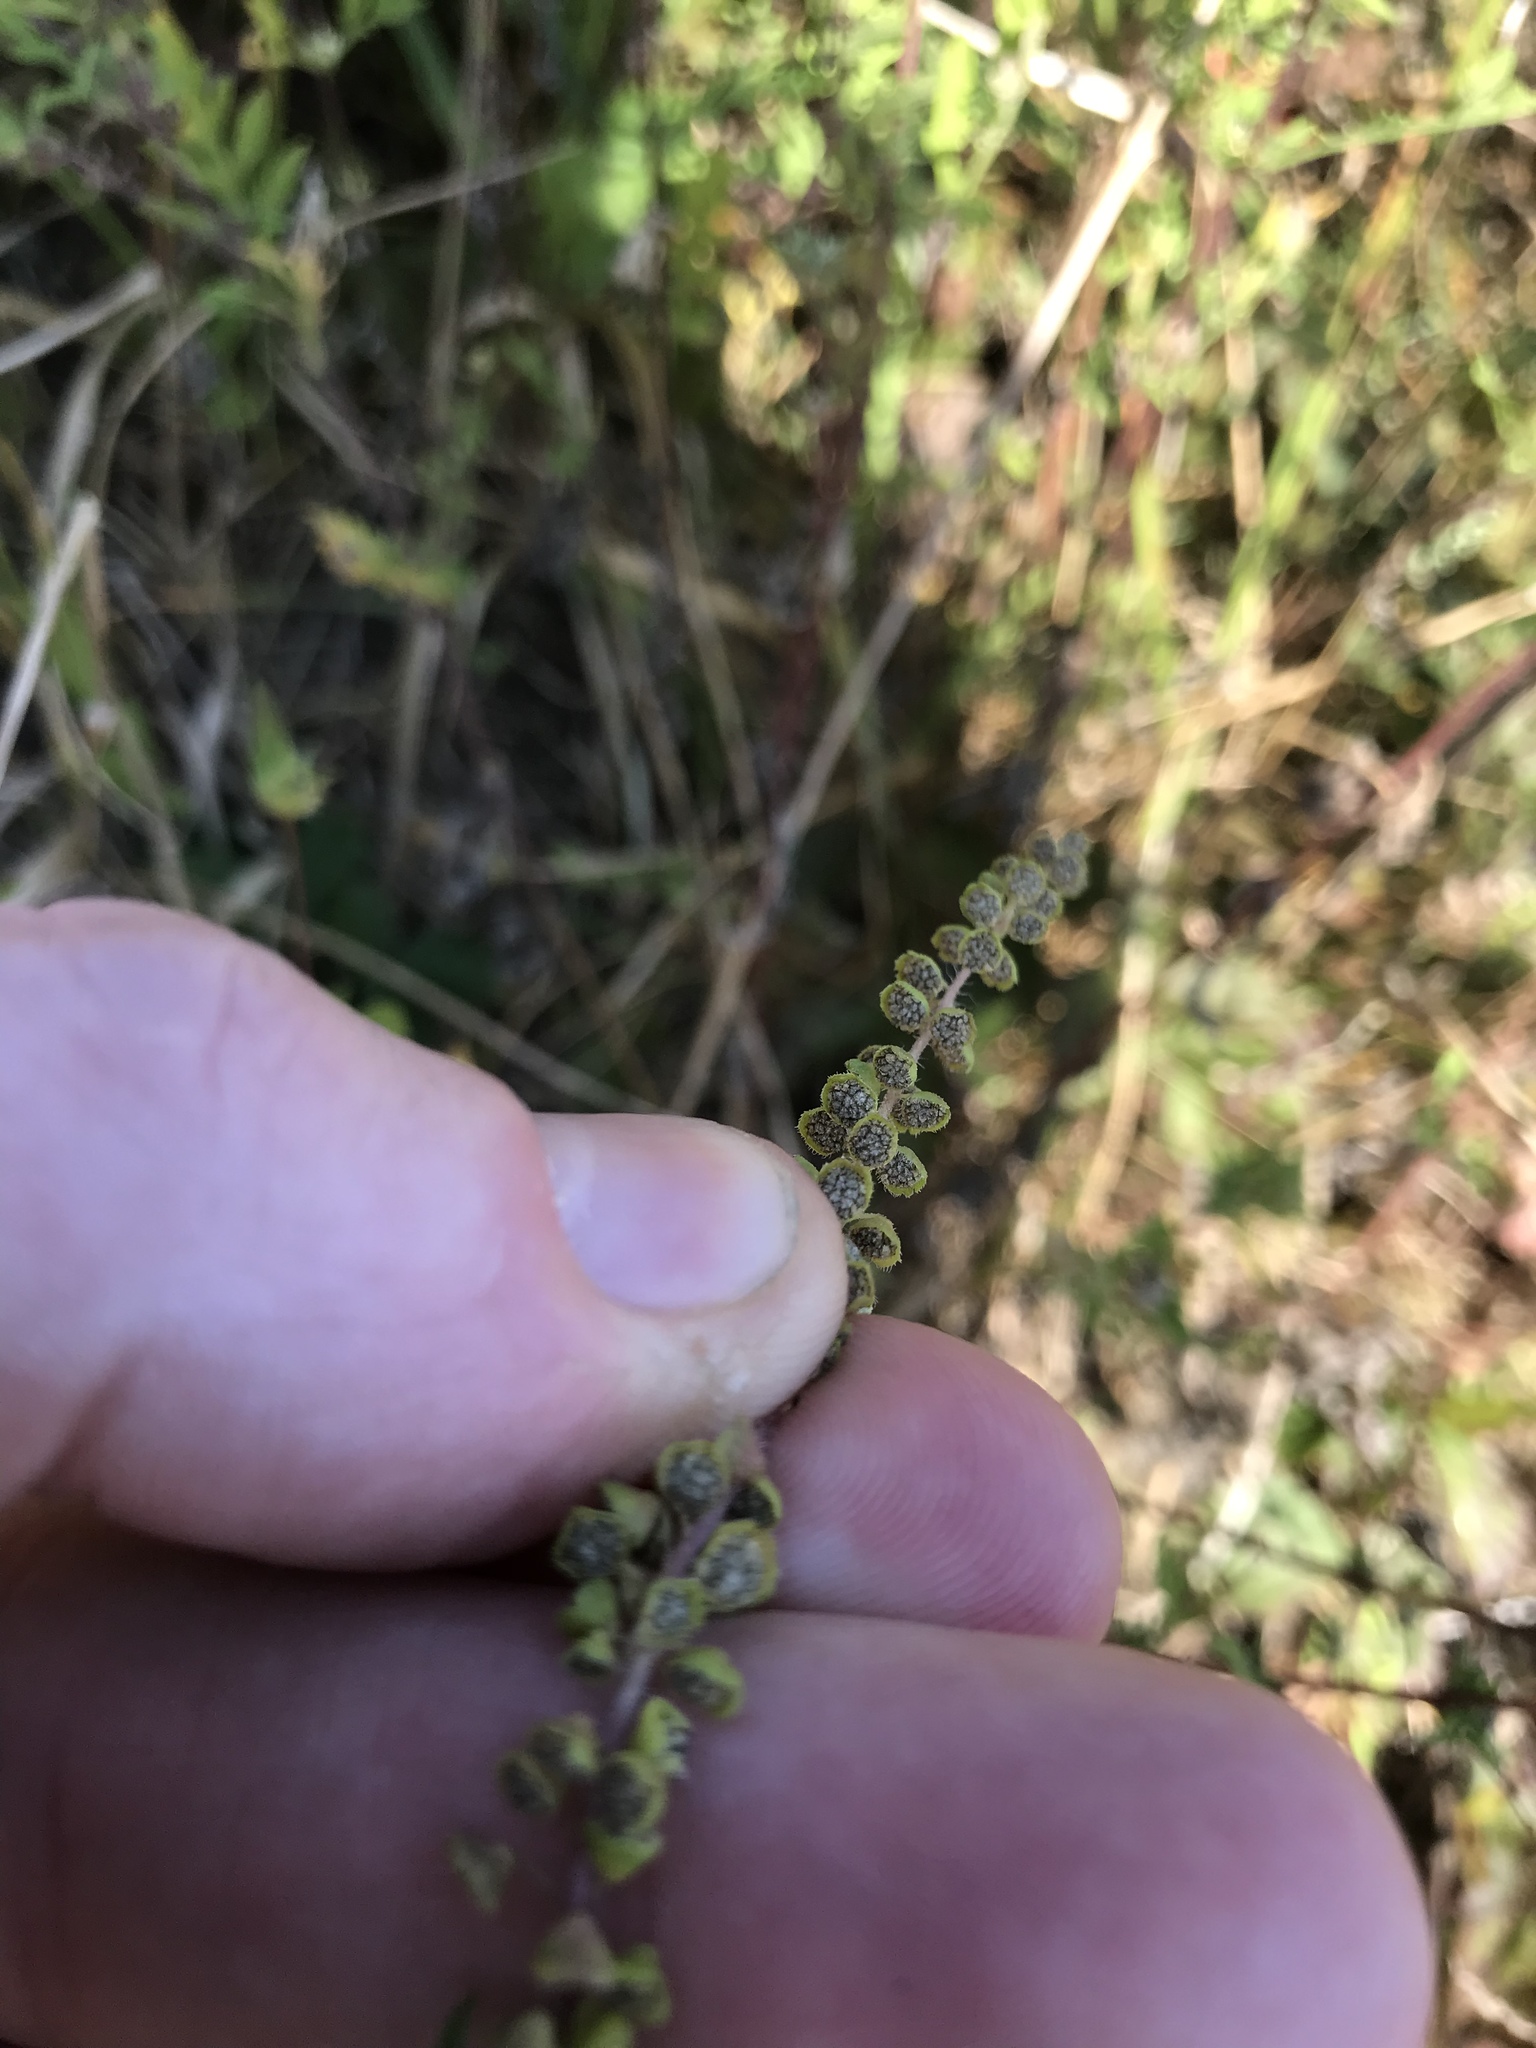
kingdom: Plantae
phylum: Tracheophyta
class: Magnoliopsida
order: Asterales
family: Asteraceae
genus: Ambrosia
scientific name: Ambrosia artemisiifolia
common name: Annual ragweed
